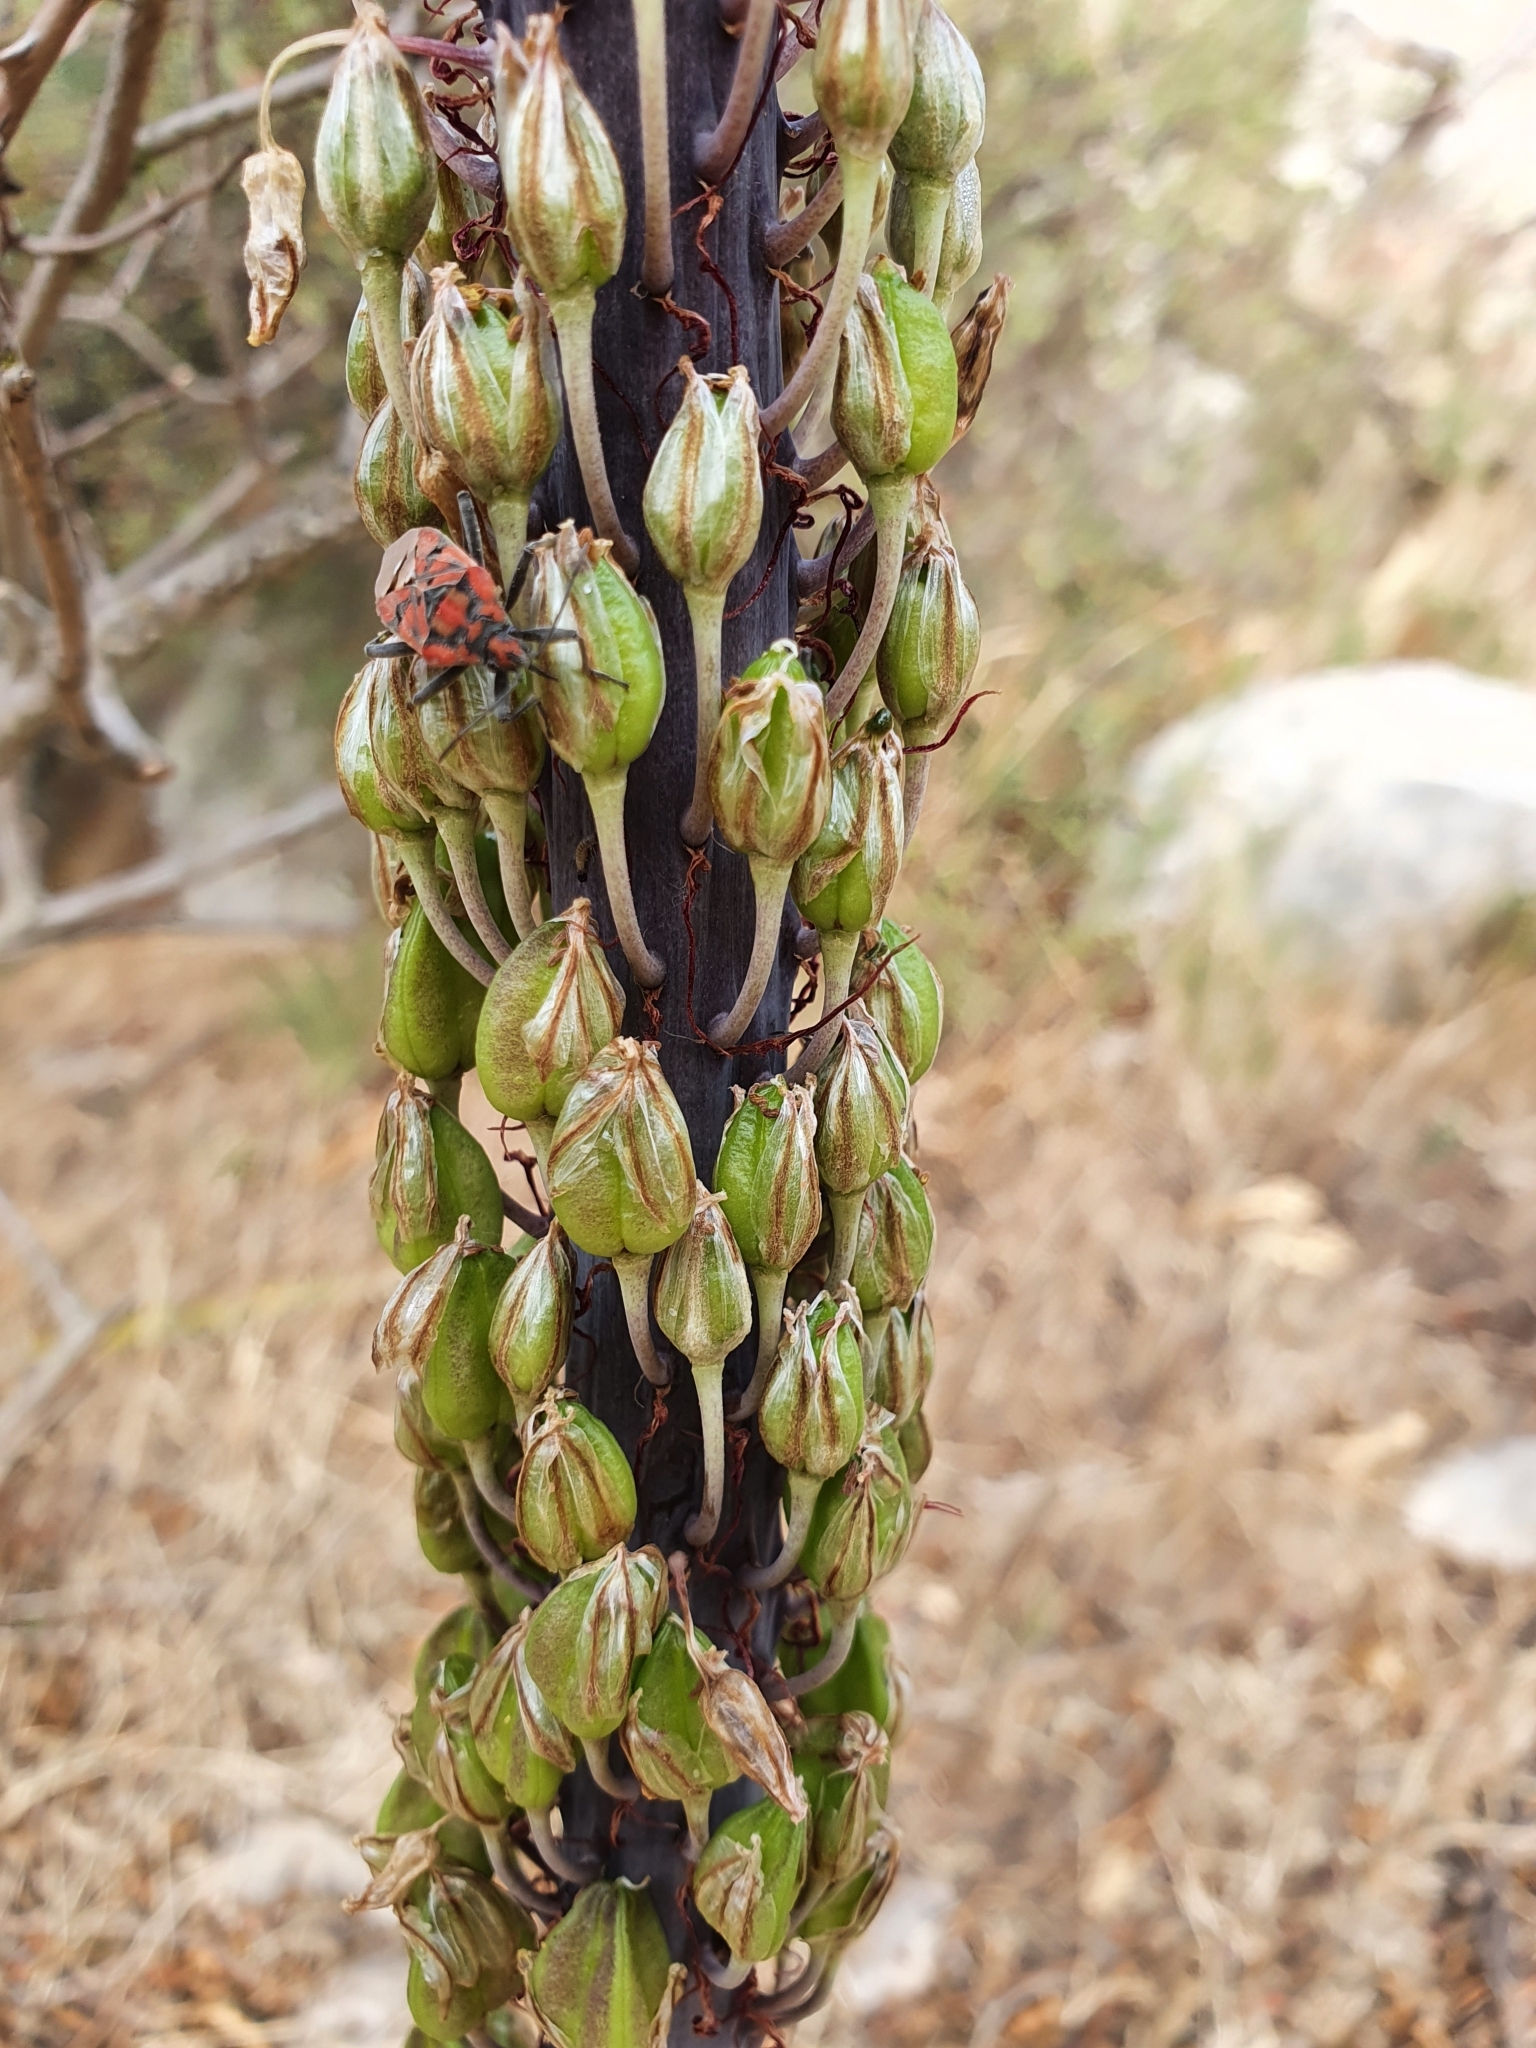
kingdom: Plantae
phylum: Tracheophyta
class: Liliopsida
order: Asparagales
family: Asparagaceae
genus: Drimia
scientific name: Drimia numidica
